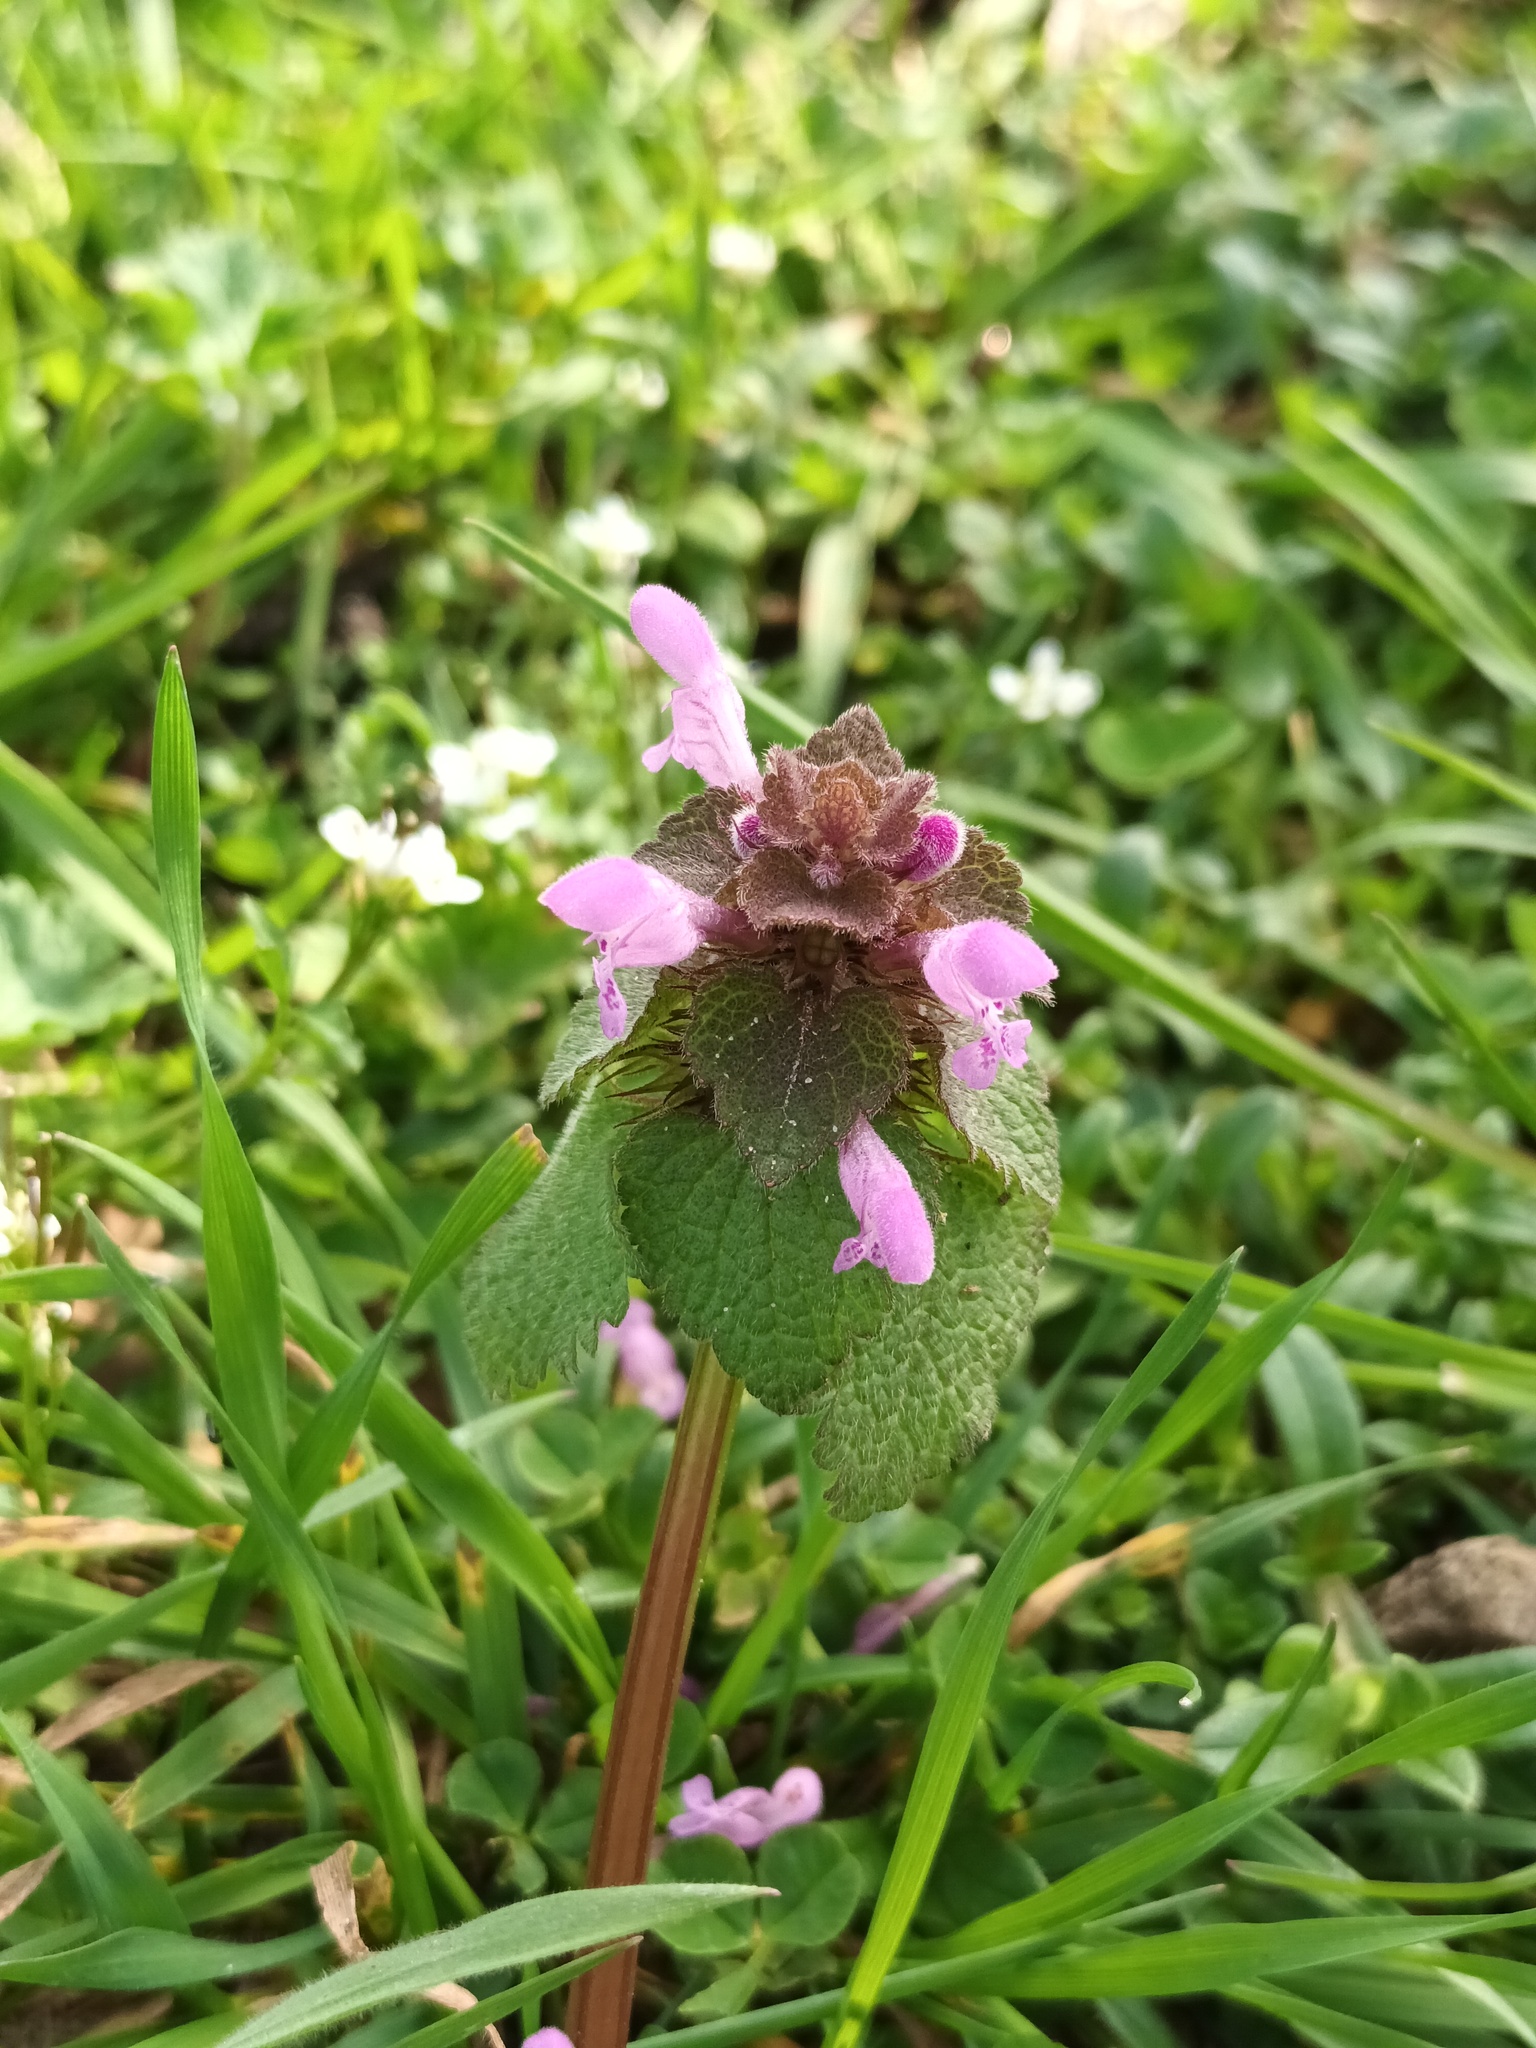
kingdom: Plantae
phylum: Tracheophyta
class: Magnoliopsida
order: Lamiales
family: Lamiaceae
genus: Lamium
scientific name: Lamium purpureum
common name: Red dead-nettle
